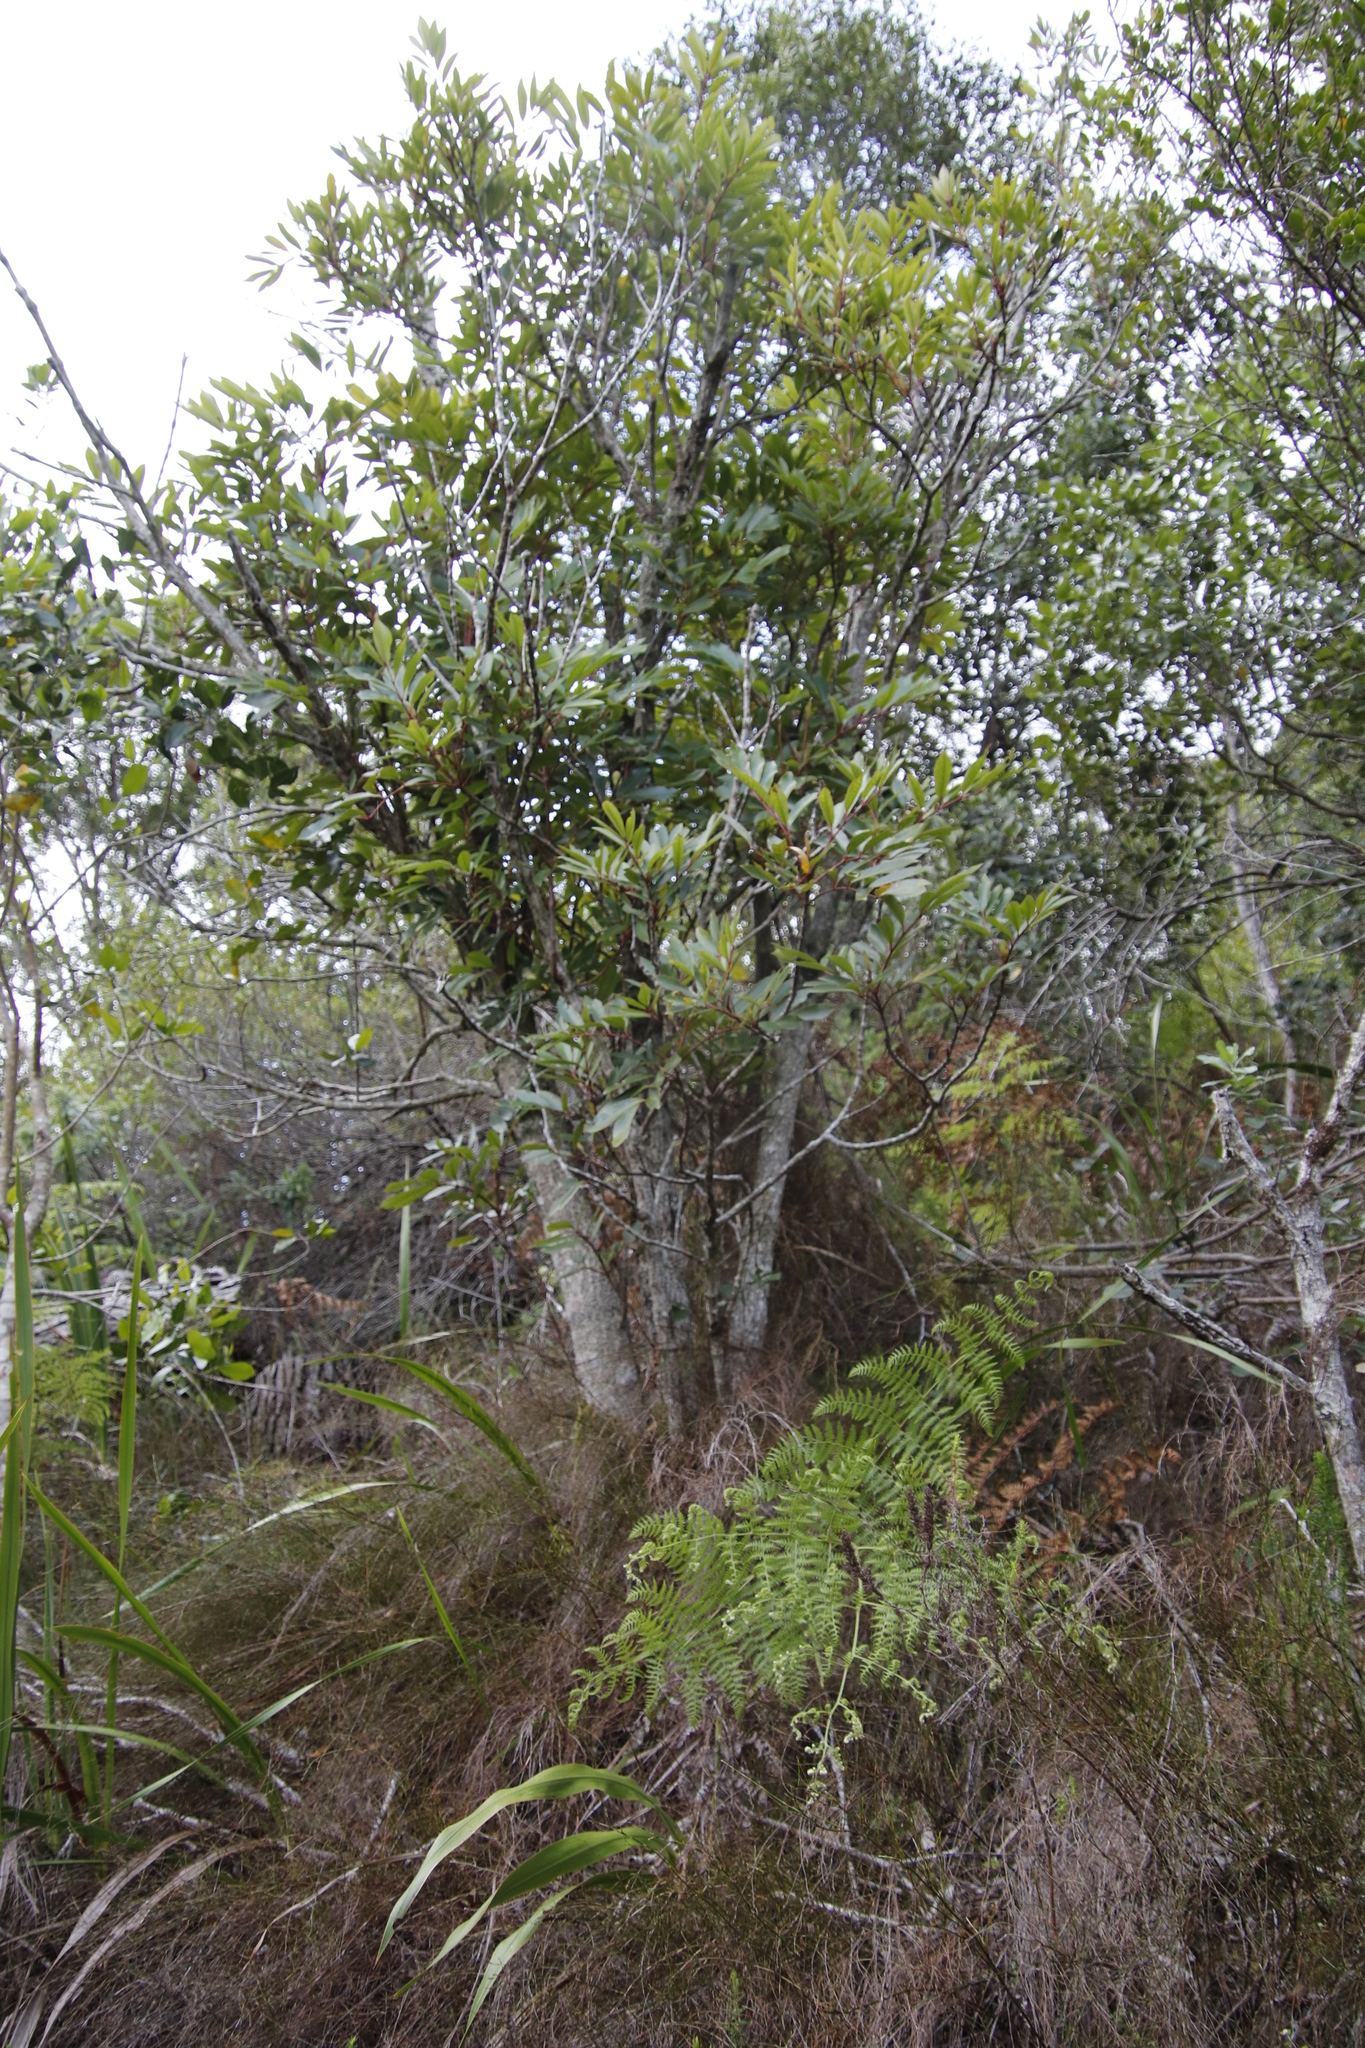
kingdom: Plantae
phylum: Tracheophyta
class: Magnoliopsida
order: Oxalidales
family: Cunoniaceae
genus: Cunonia
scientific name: Cunonia capensis
